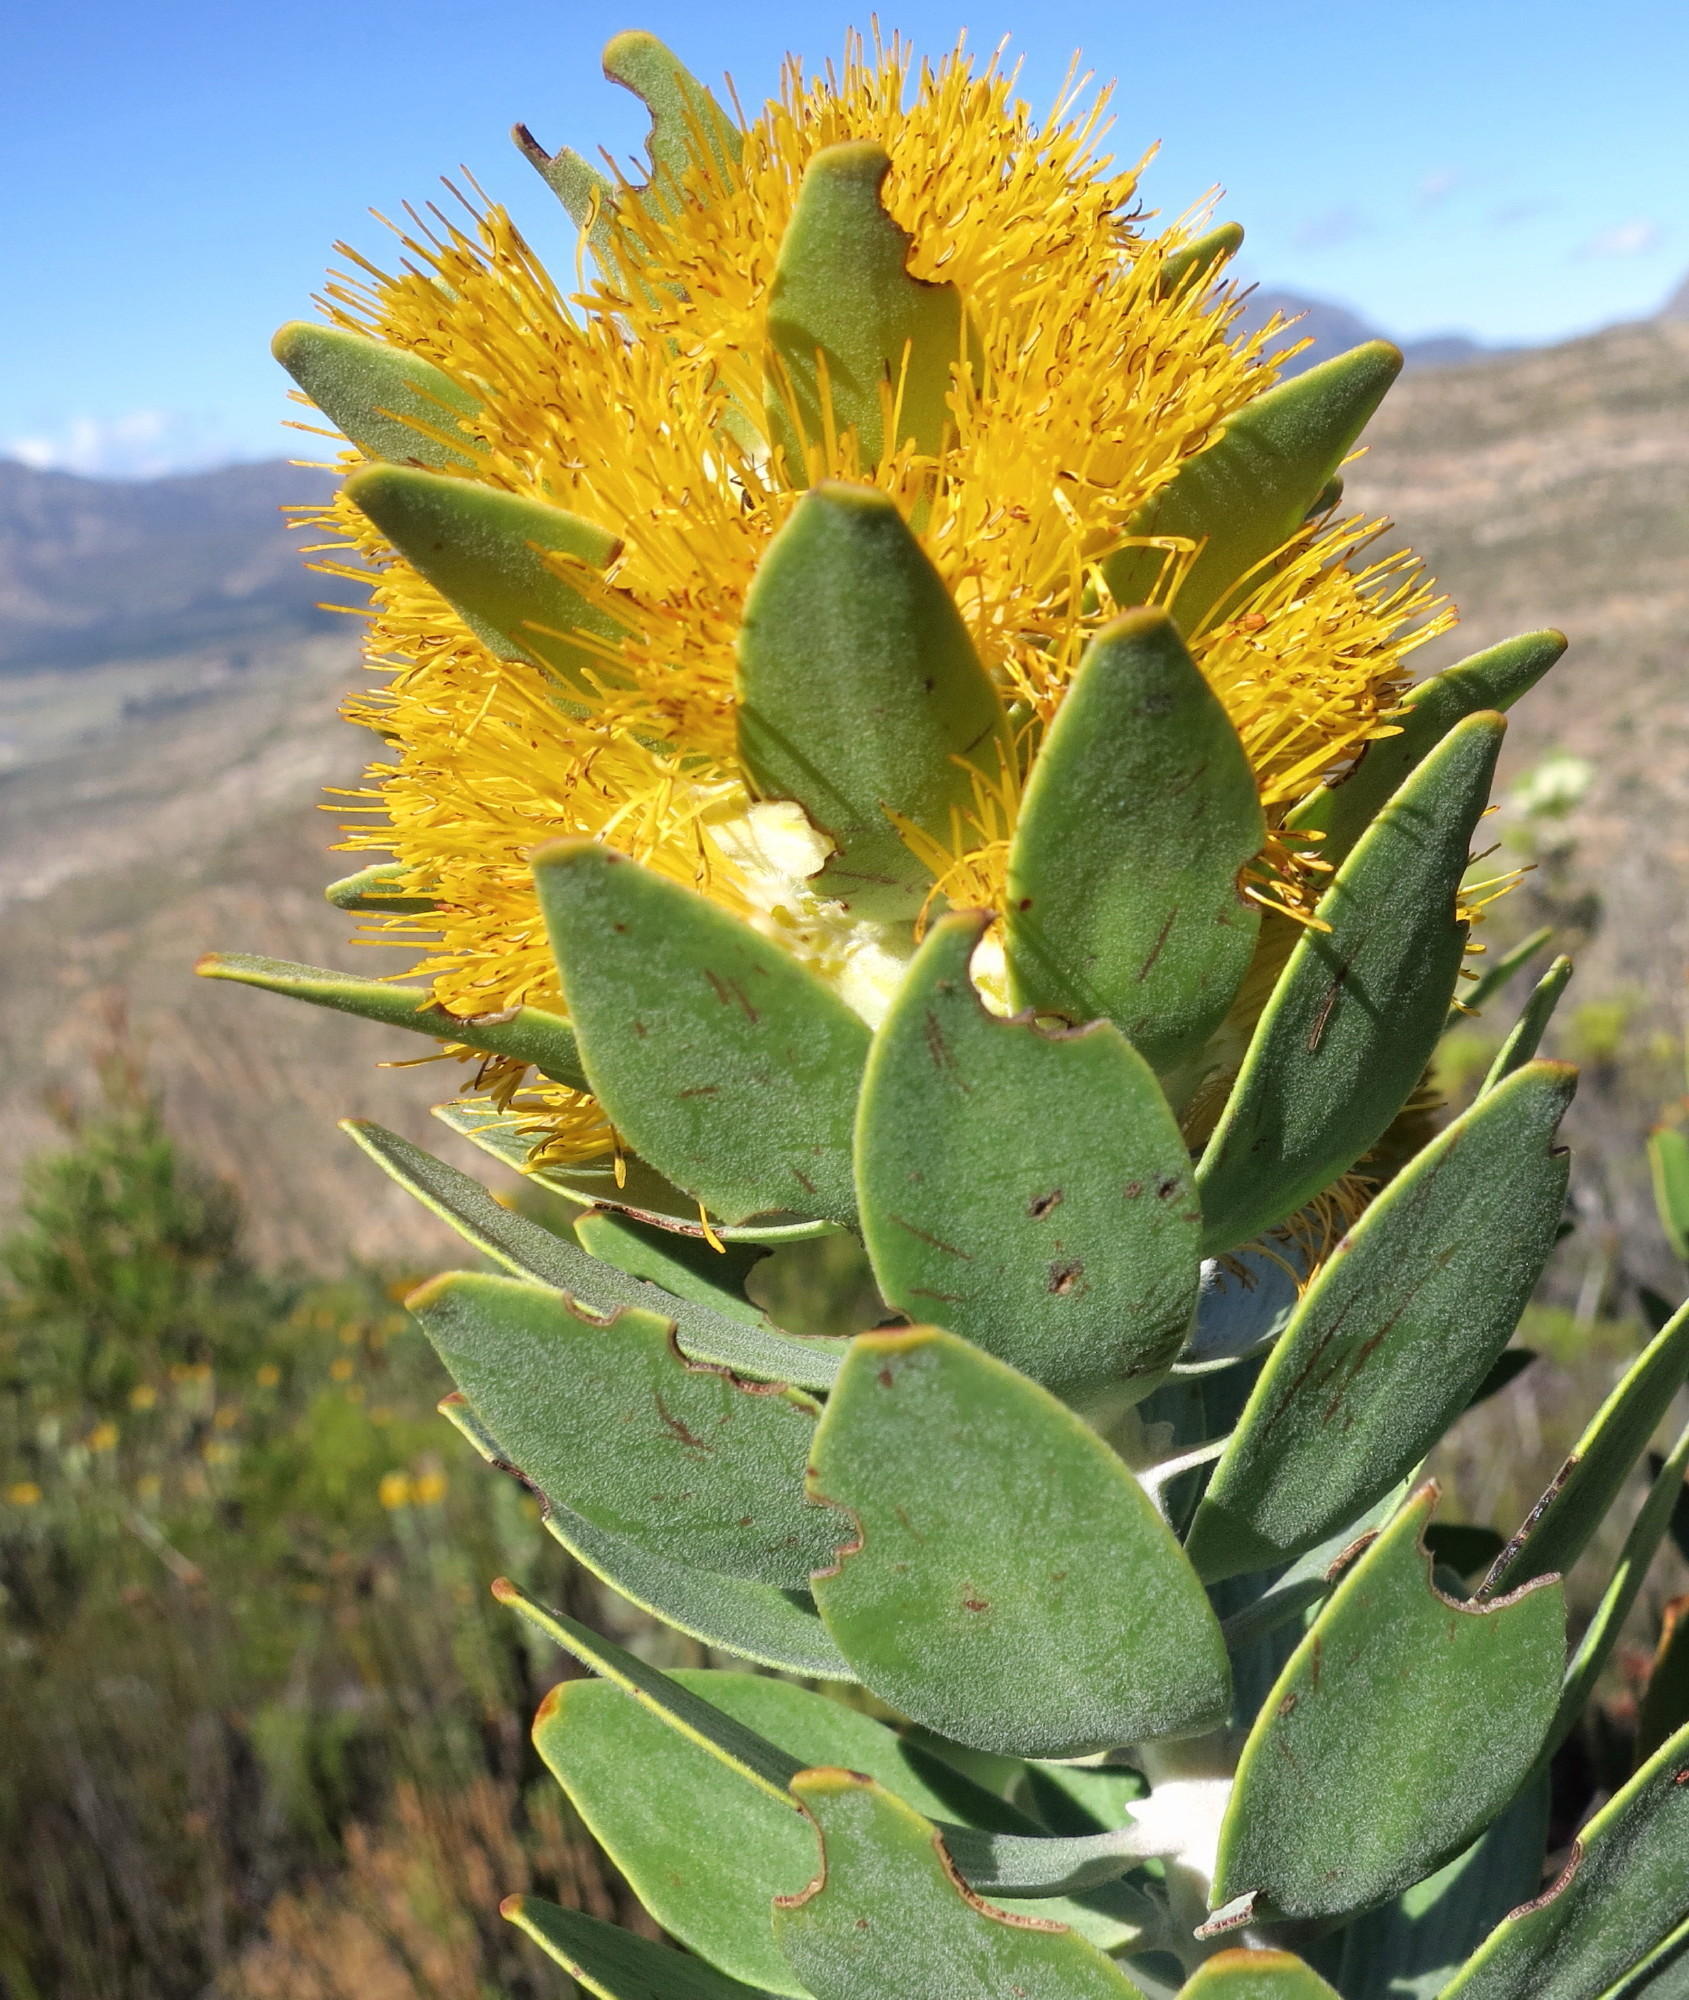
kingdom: Plantae
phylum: Tracheophyta
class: Magnoliopsida
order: Proteales
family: Proteaceae
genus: Mimetes
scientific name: Mimetes chrysanthus
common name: Golden pagoda
